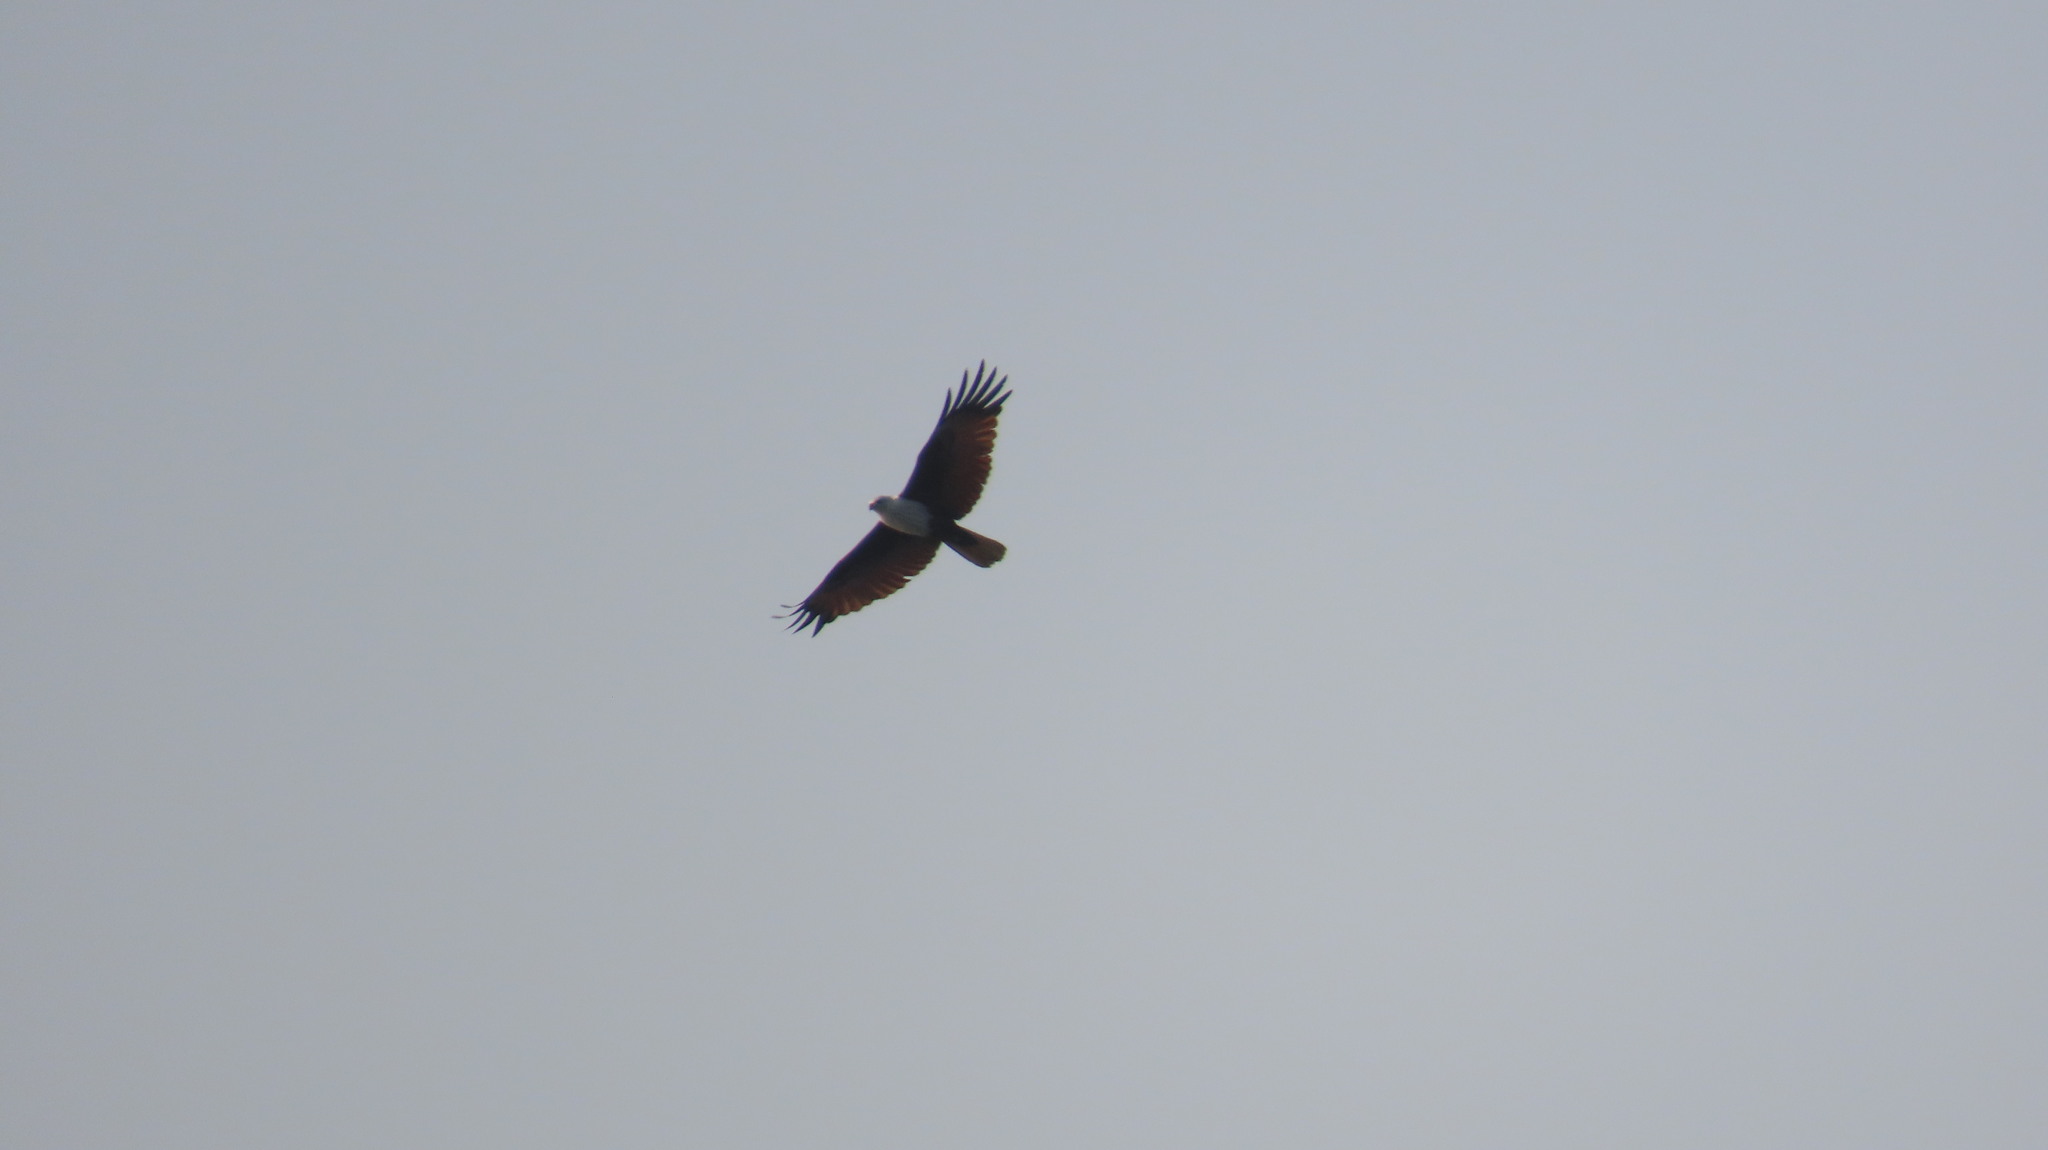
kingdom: Animalia
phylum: Chordata
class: Aves
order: Accipitriformes
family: Accipitridae
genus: Haliastur
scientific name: Haliastur indus
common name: Brahminy kite
